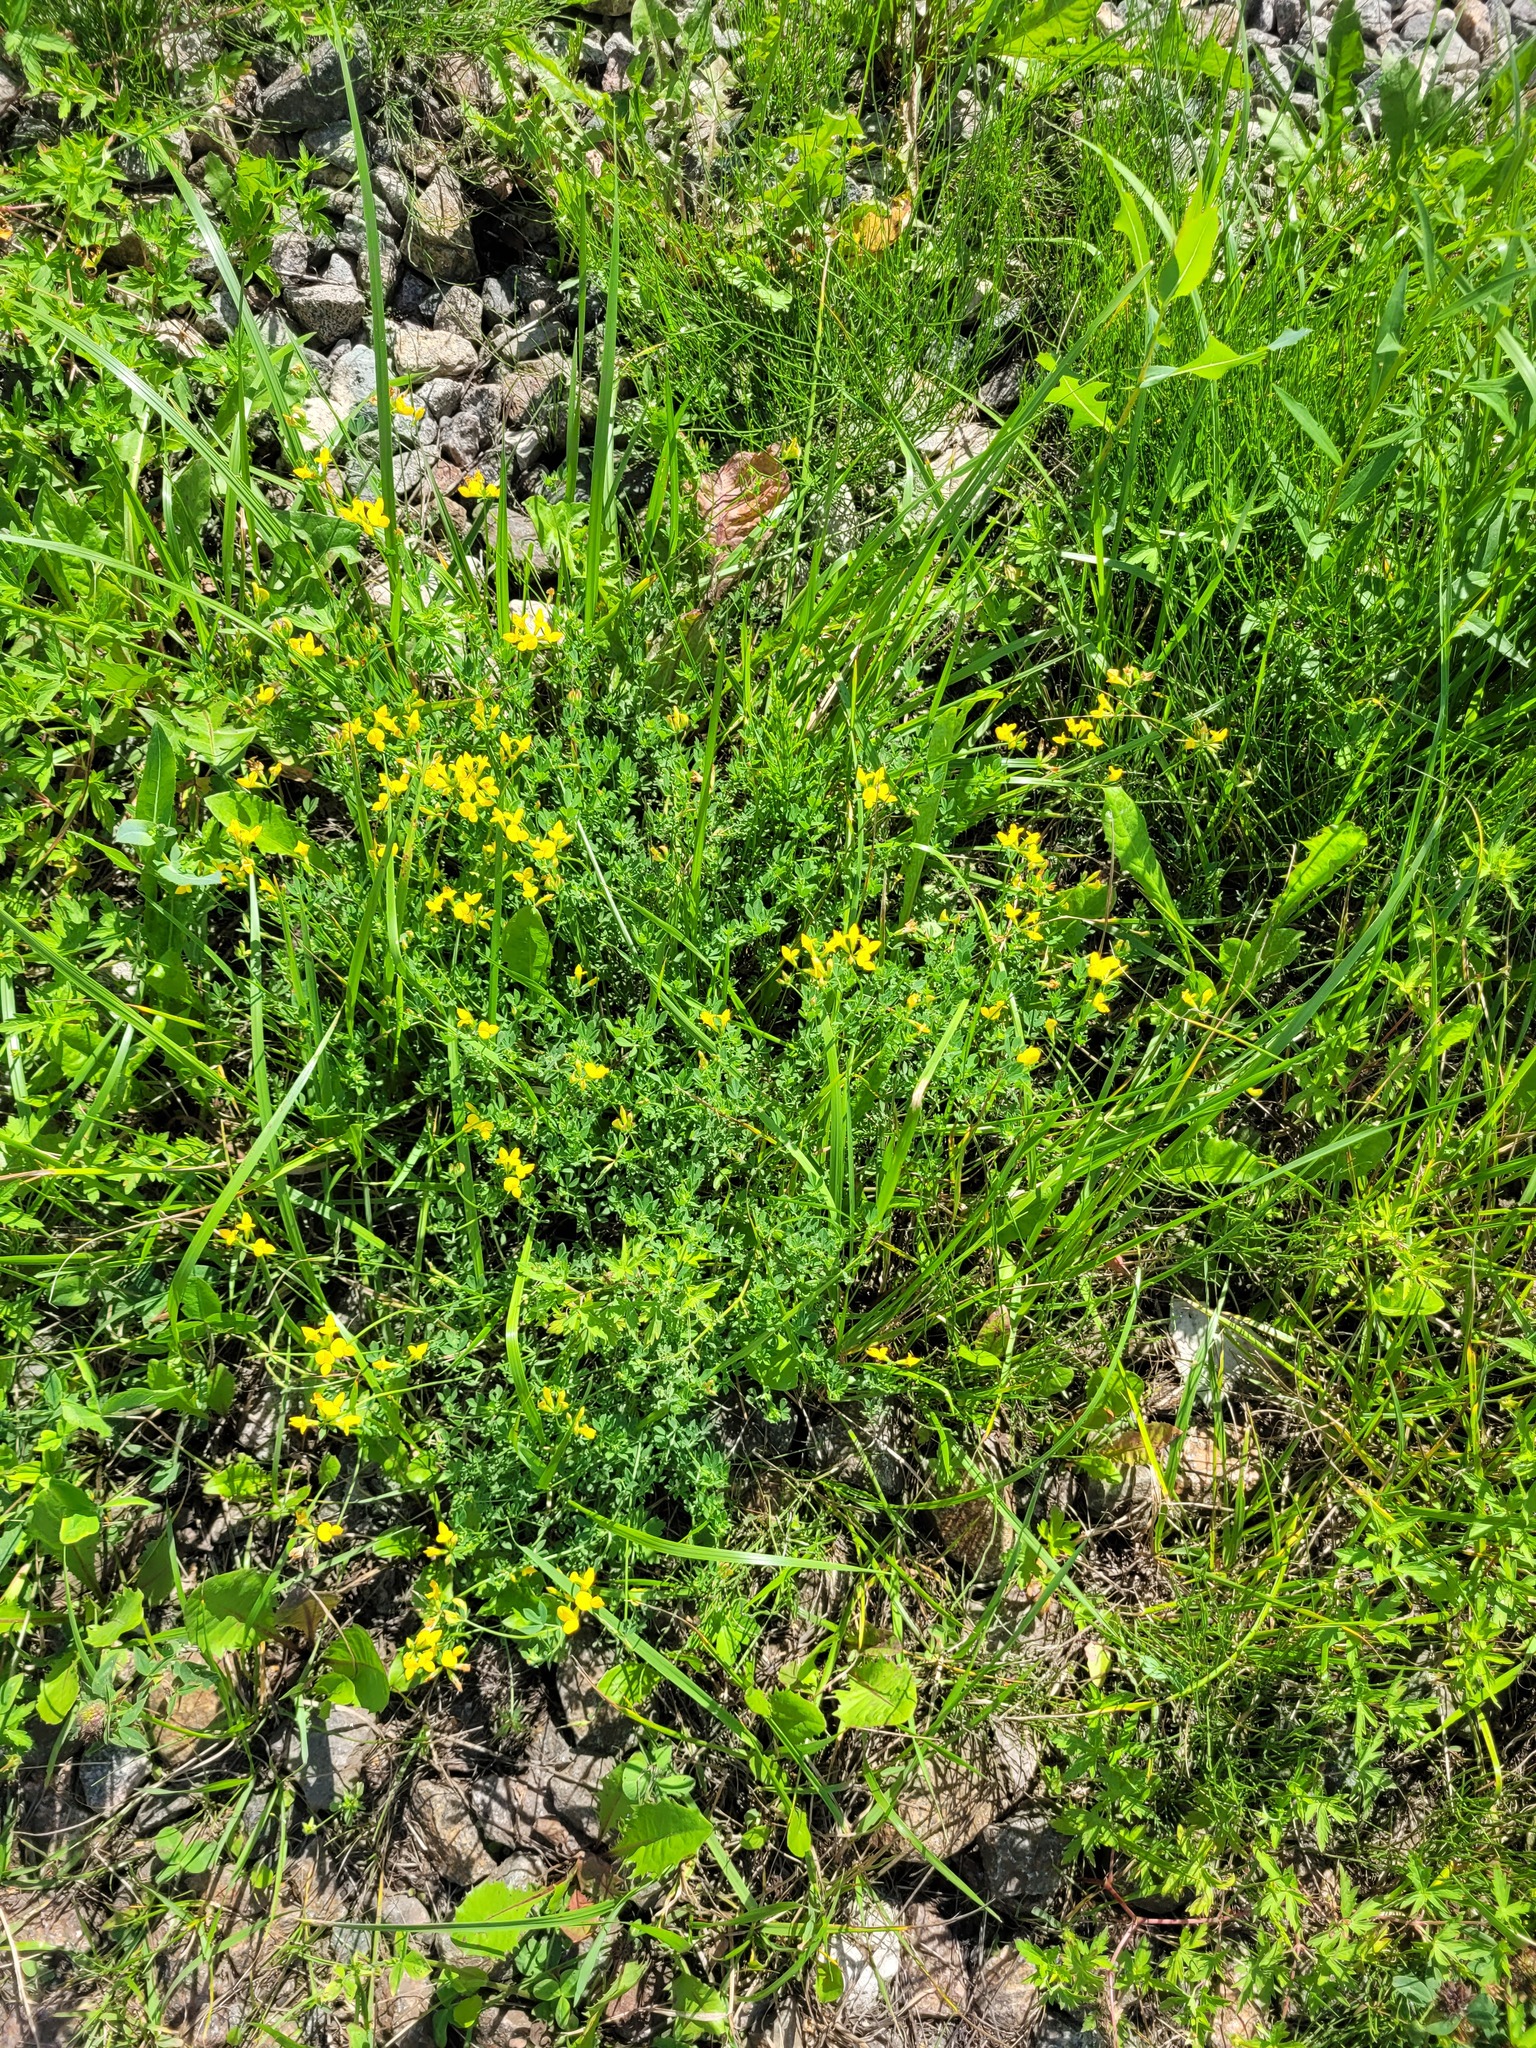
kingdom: Plantae
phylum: Tracheophyta
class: Magnoliopsida
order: Fabales
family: Fabaceae
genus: Lotus
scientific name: Lotus corniculatus
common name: Common bird's-foot-trefoil
